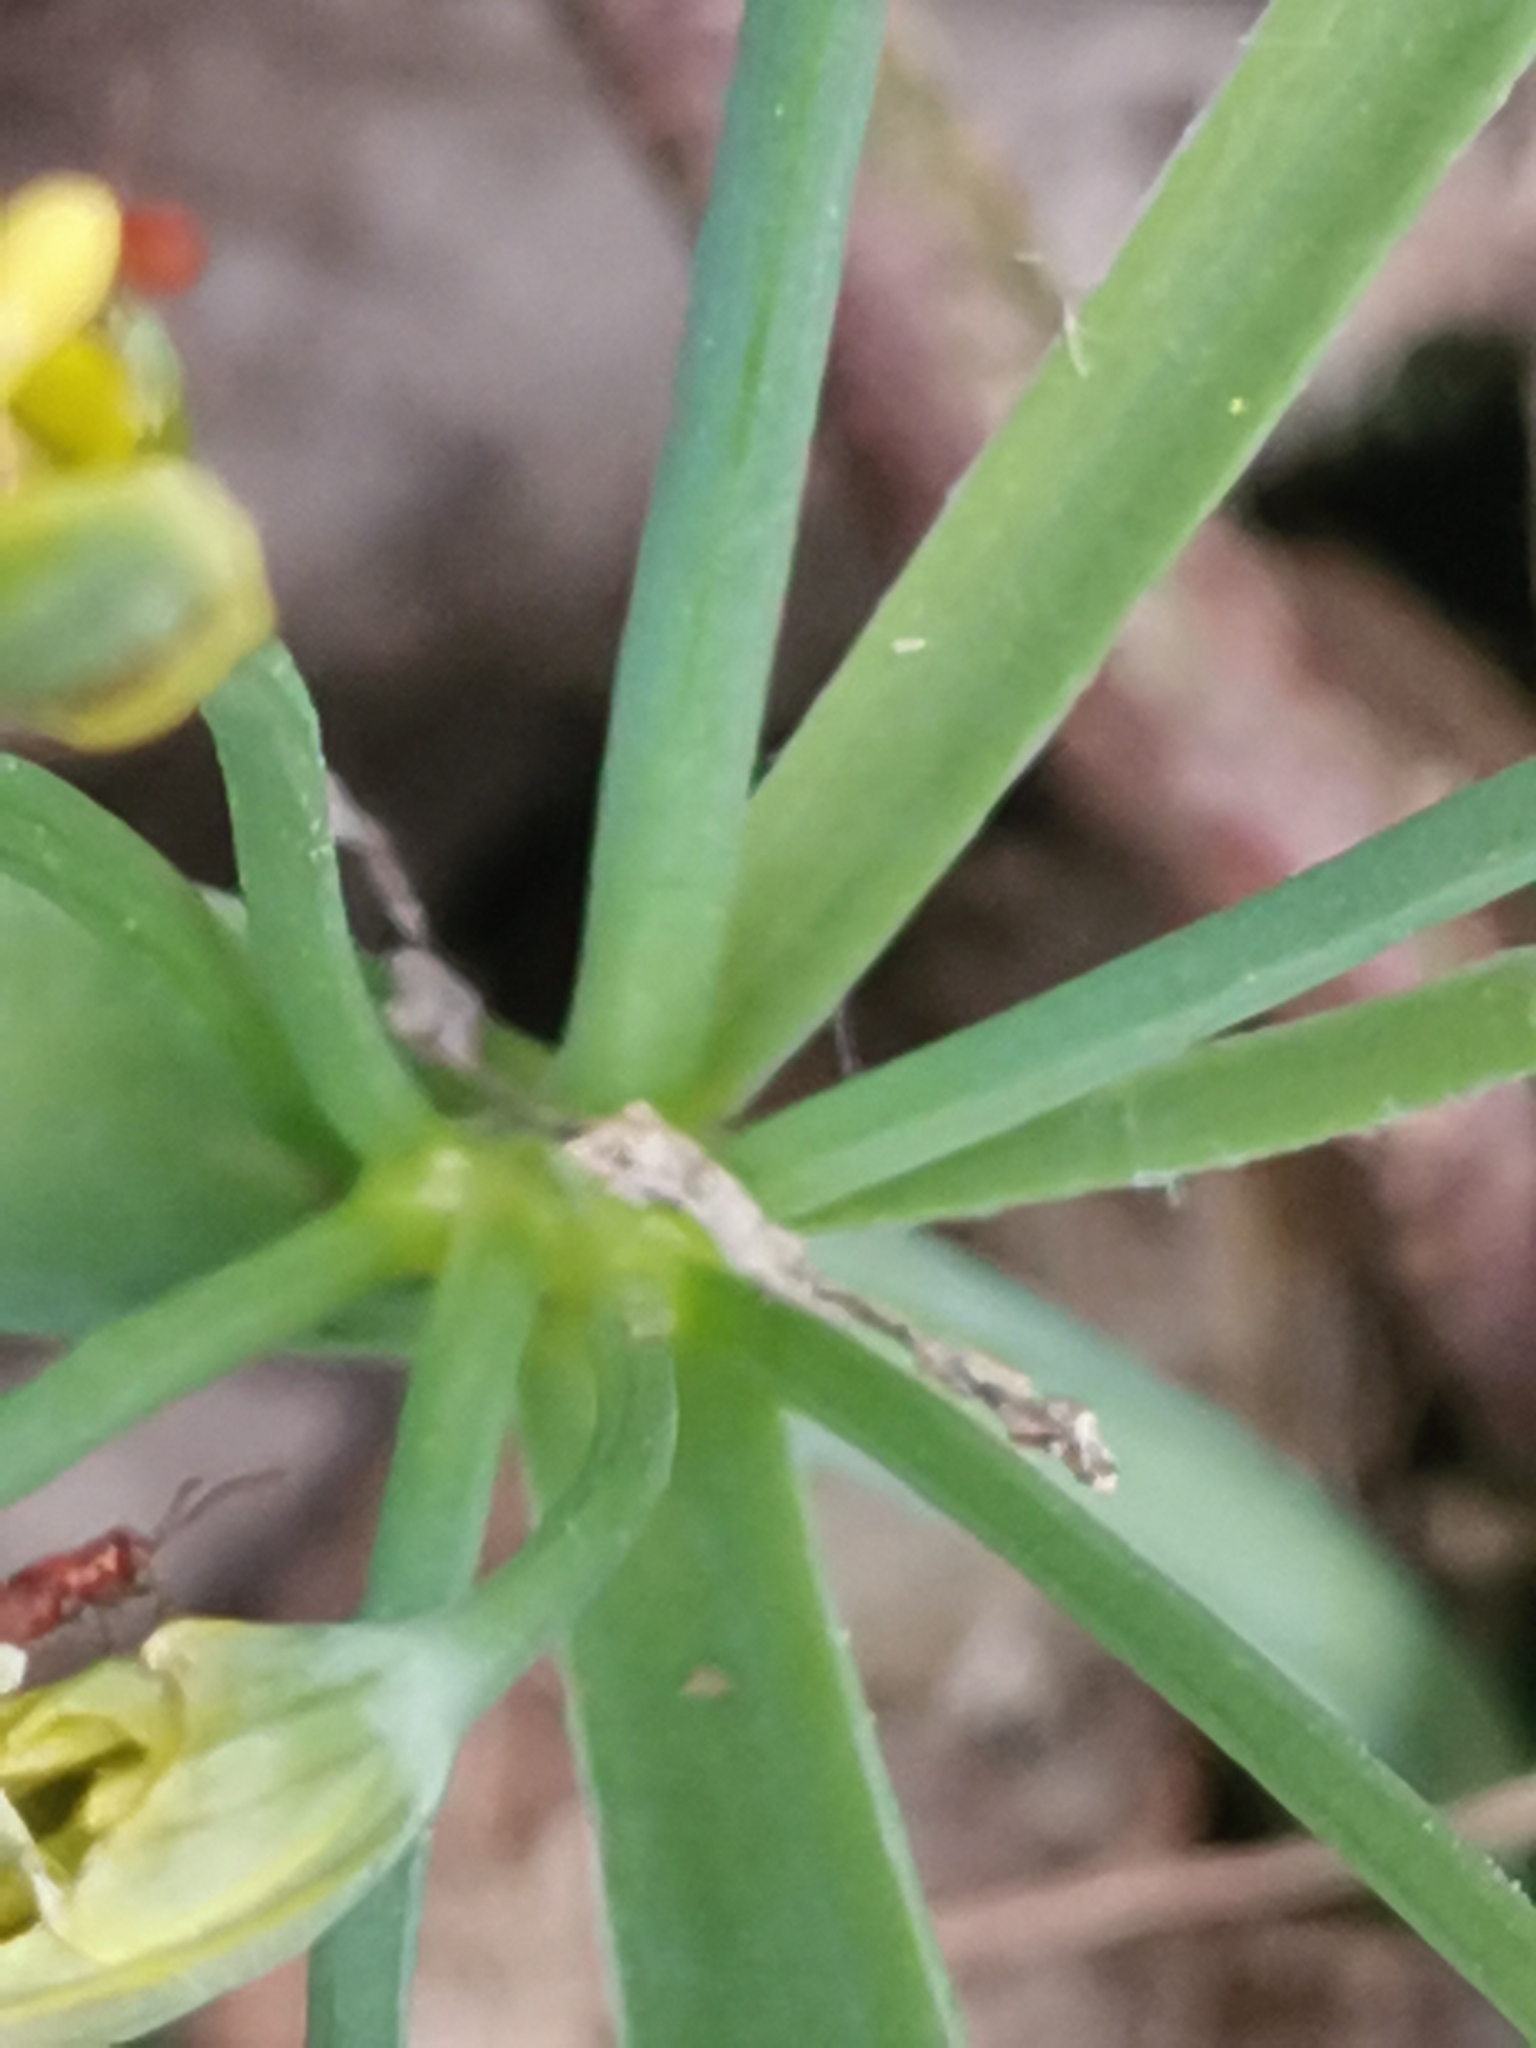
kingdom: Plantae
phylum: Tracheophyta
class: Liliopsida
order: Liliales
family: Liliaceae
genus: Gagea
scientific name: Gagea lutea
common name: Yellow star-of-bethlehem
